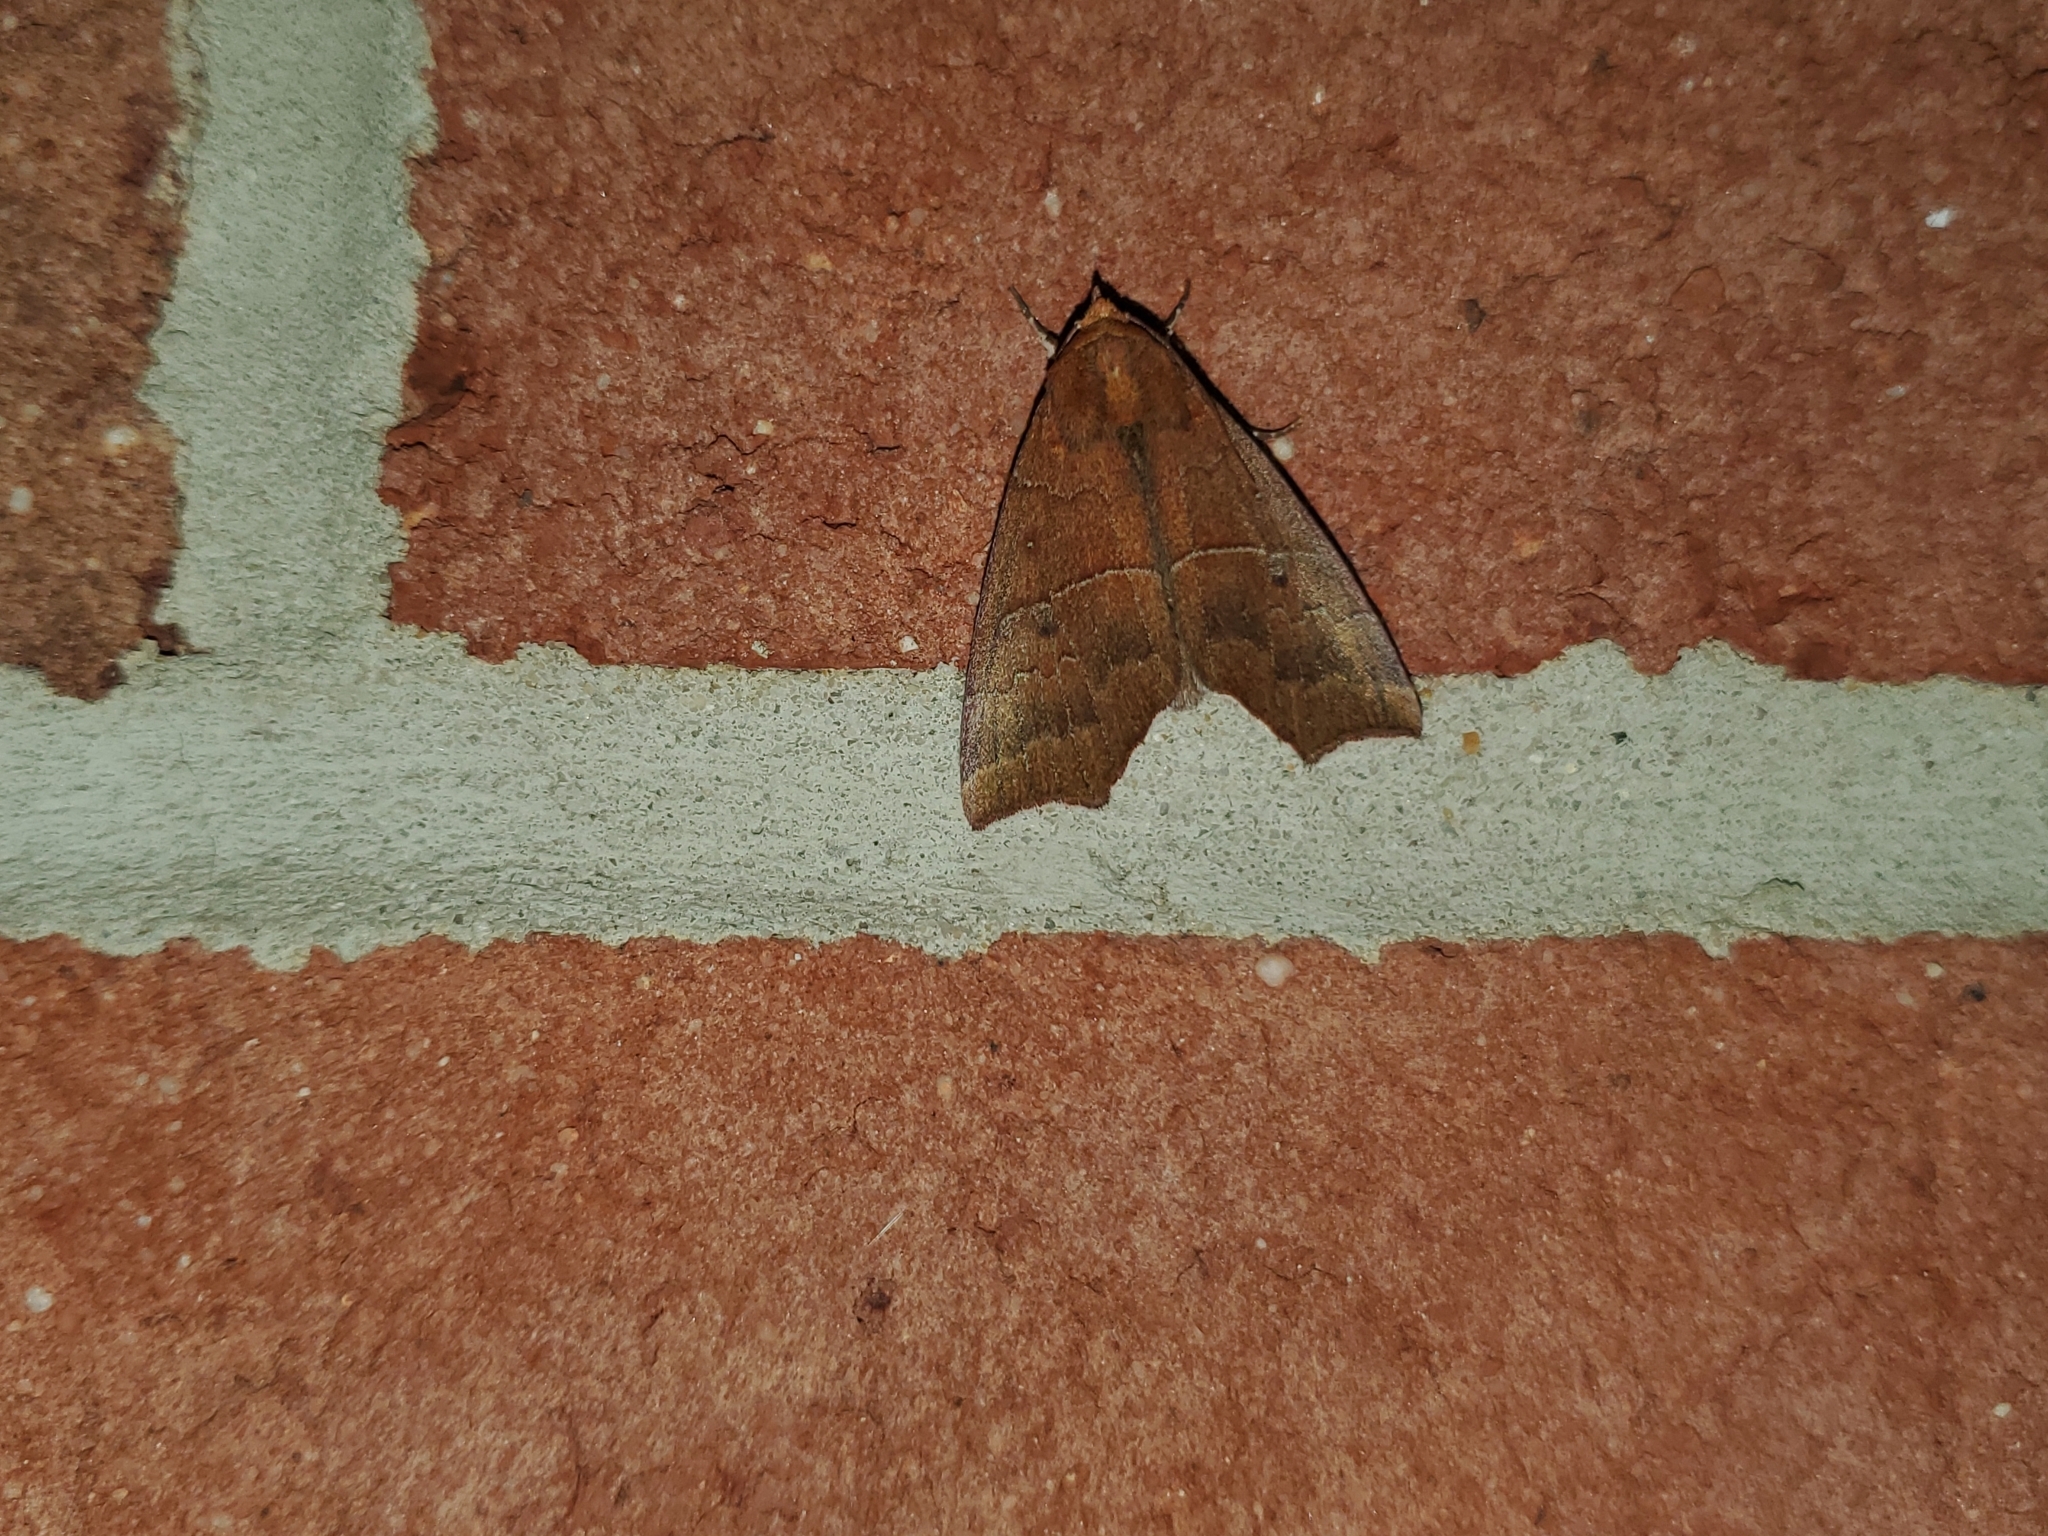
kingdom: Animalia
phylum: Arthropoda
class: Insecta
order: Lepidoptera
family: Erebidae
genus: Rusicada
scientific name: Rusicada privata
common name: Hibiscus leaf caterpillar moth
